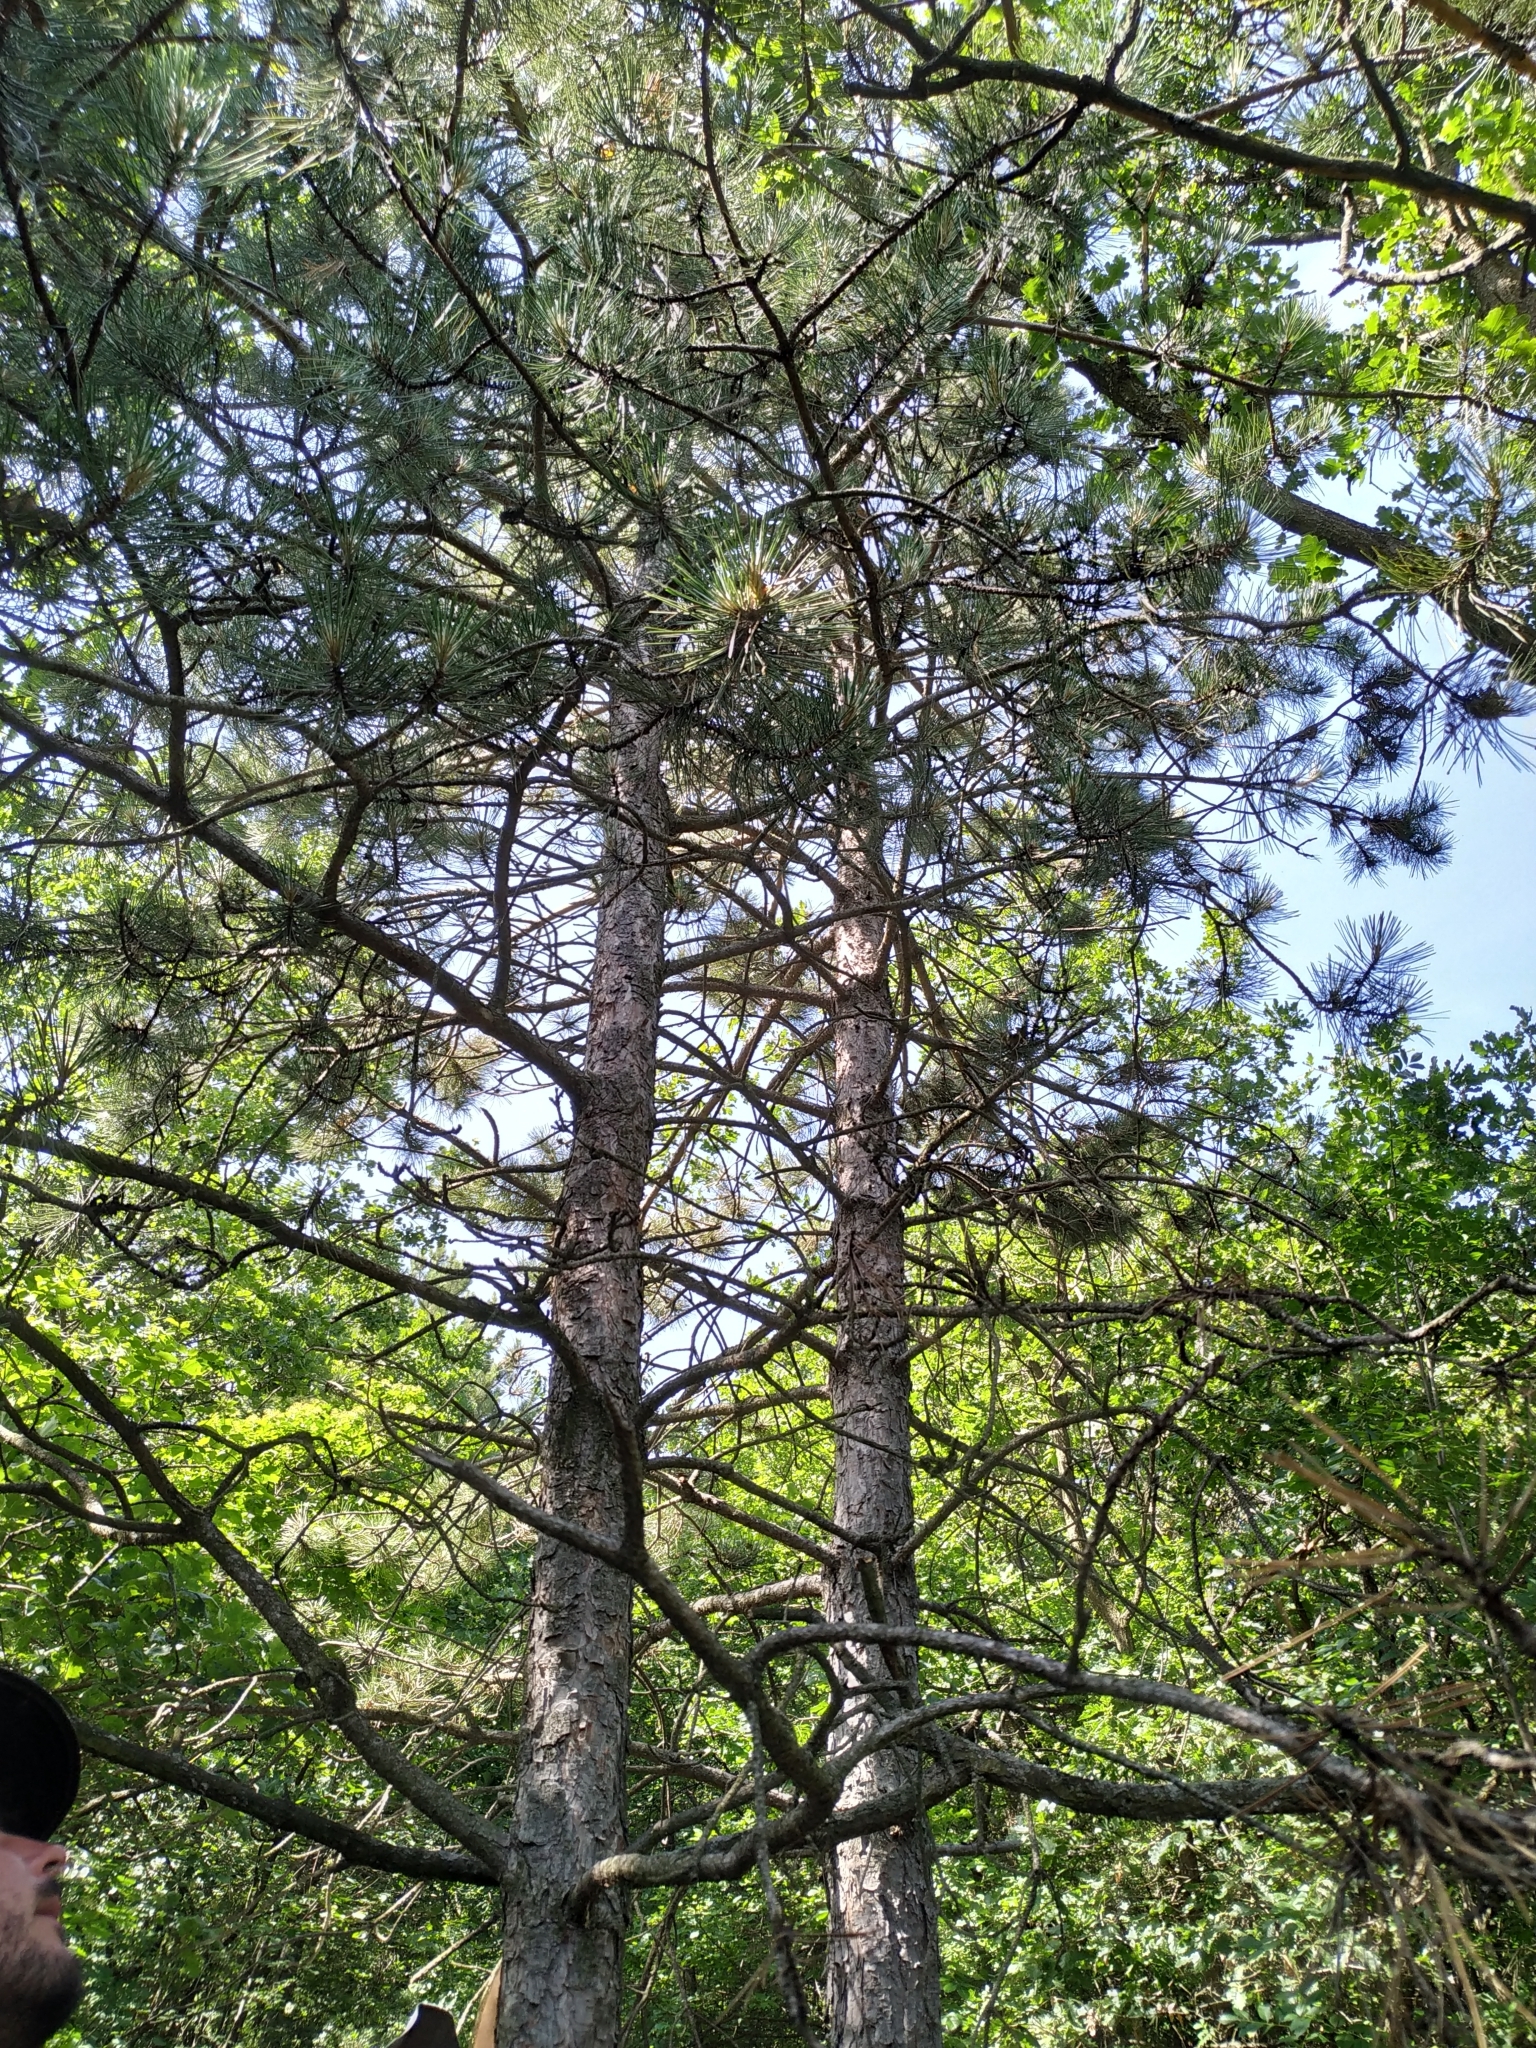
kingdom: Plantae
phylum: Tracheophyta
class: Pinopsida
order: Pinales
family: Pinaceae
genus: Pinus
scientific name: Pinus nigra
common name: Austrian pine
